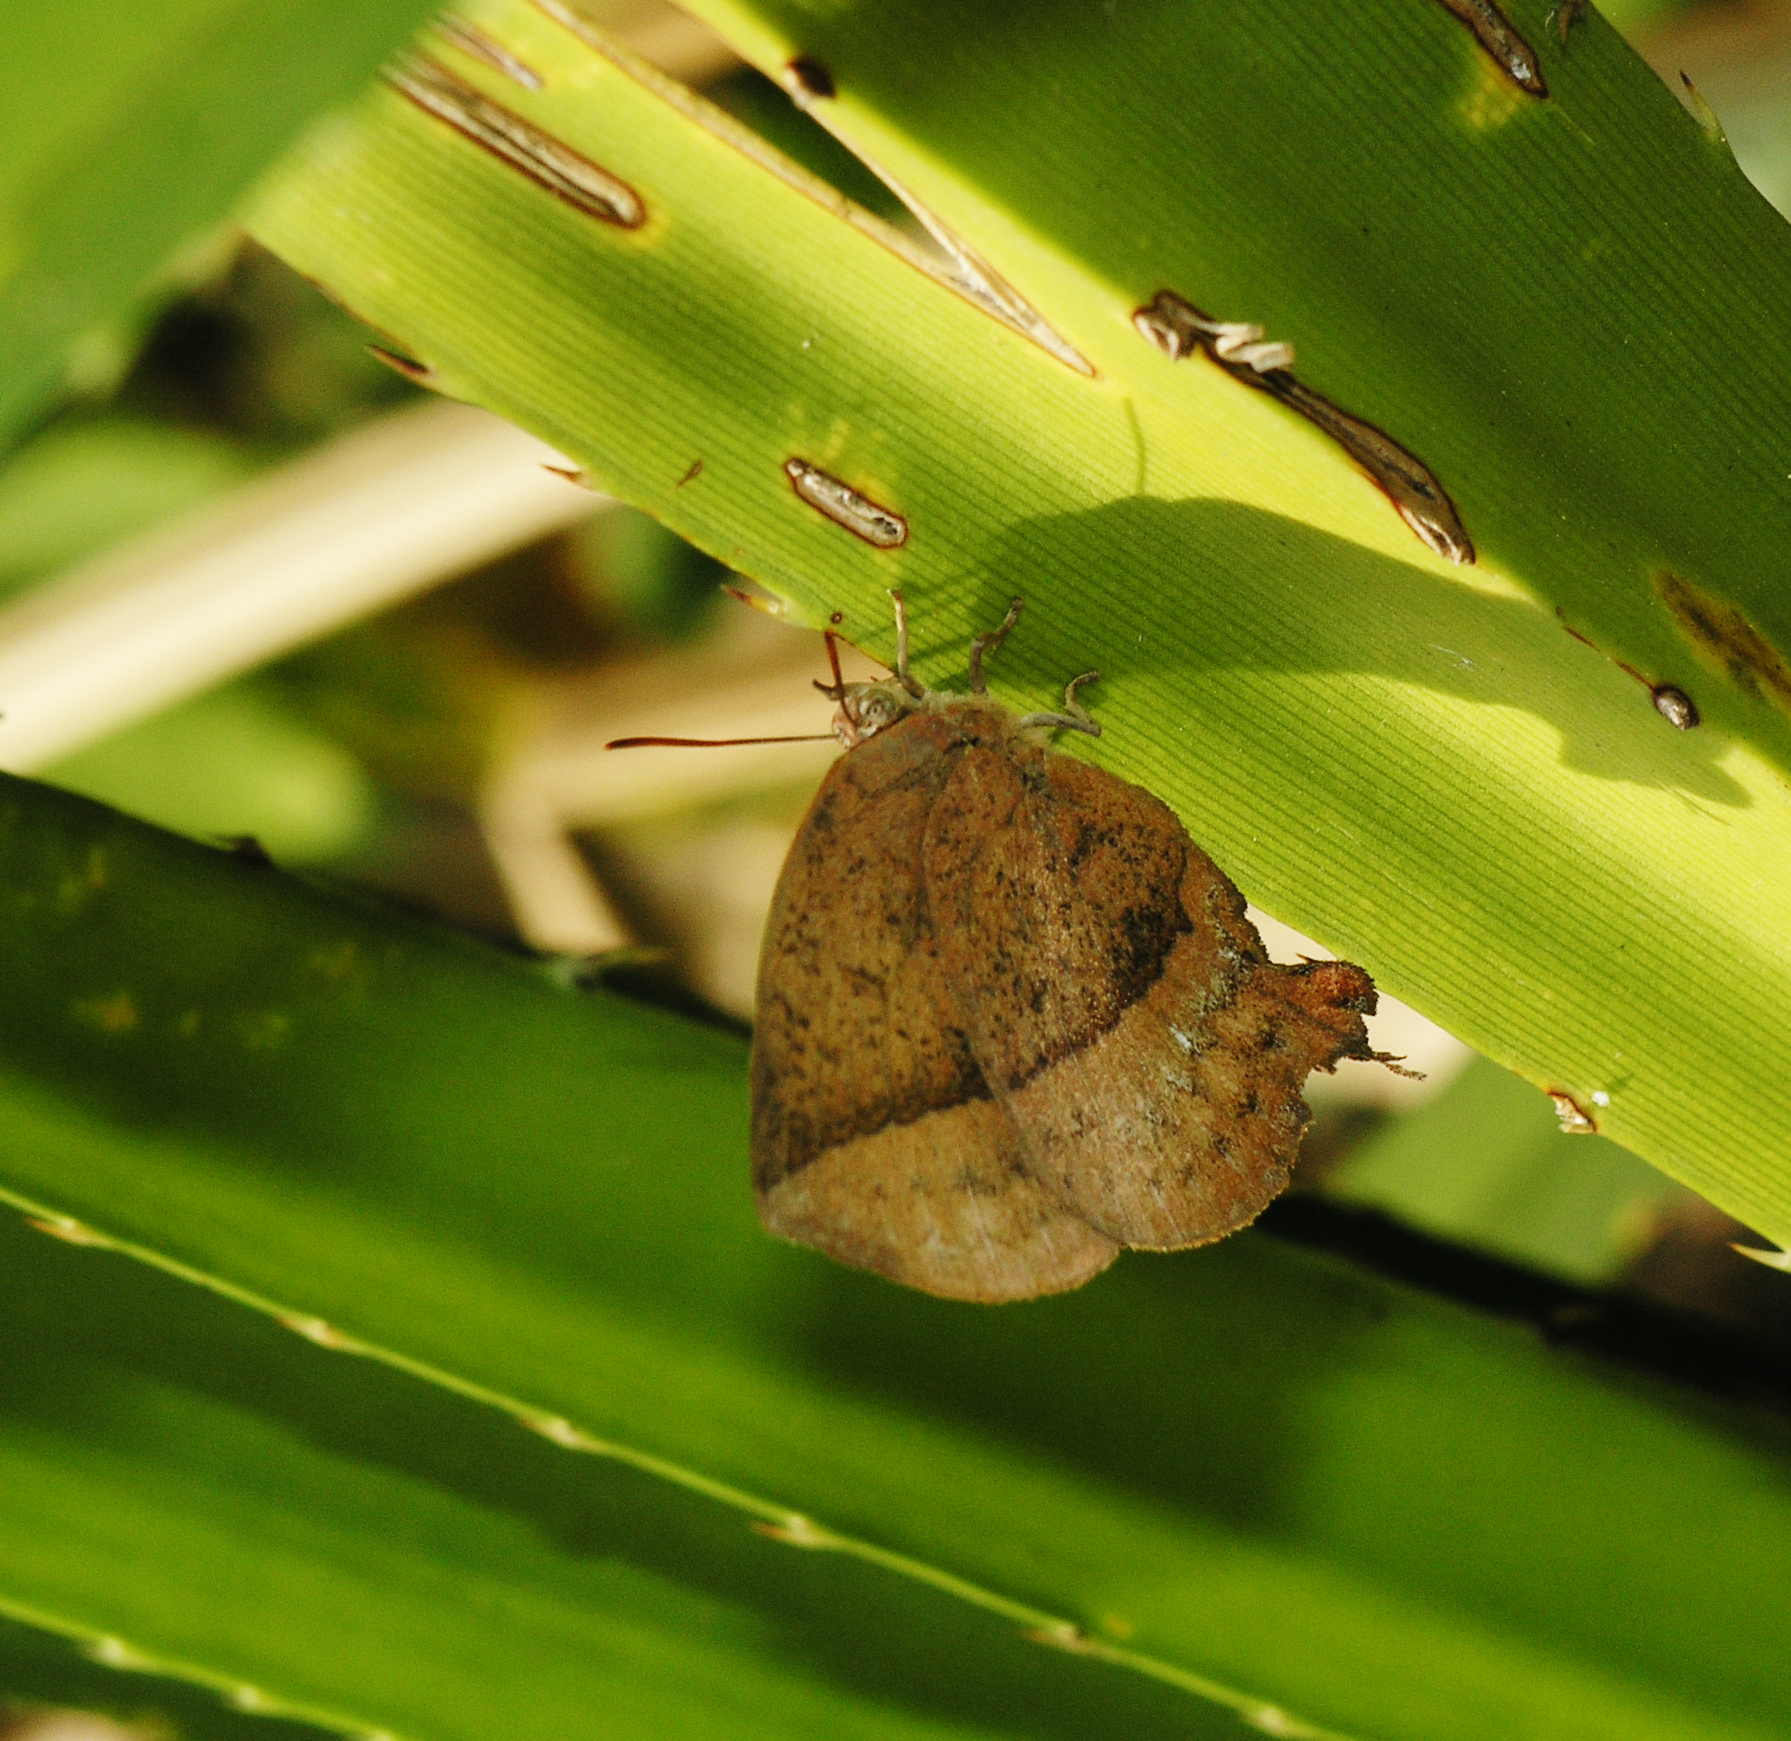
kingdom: Animalia
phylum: Arthropoda
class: Insecta
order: Lepidoptera
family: Lycaenidae
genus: Amblypodia
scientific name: Amblypodia anita
